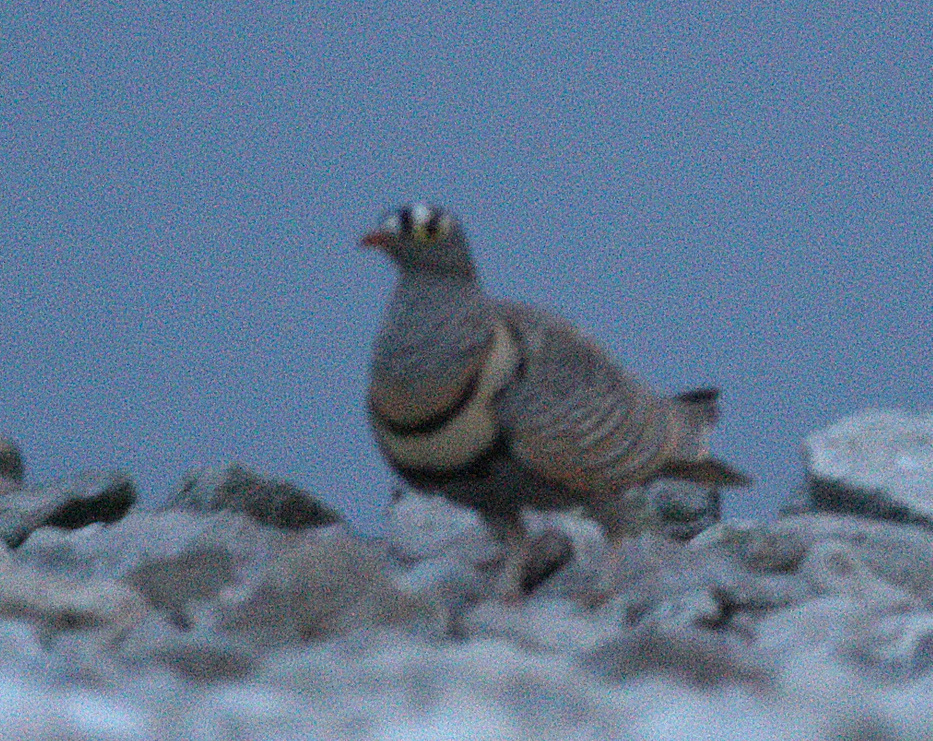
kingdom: Animalia
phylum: Chordata
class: Aves
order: Pteroclidiformes
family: Pteroclididae
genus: Pterocles
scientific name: Pterocles lichtensteinii
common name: Lichtenstein's sandgrouse
